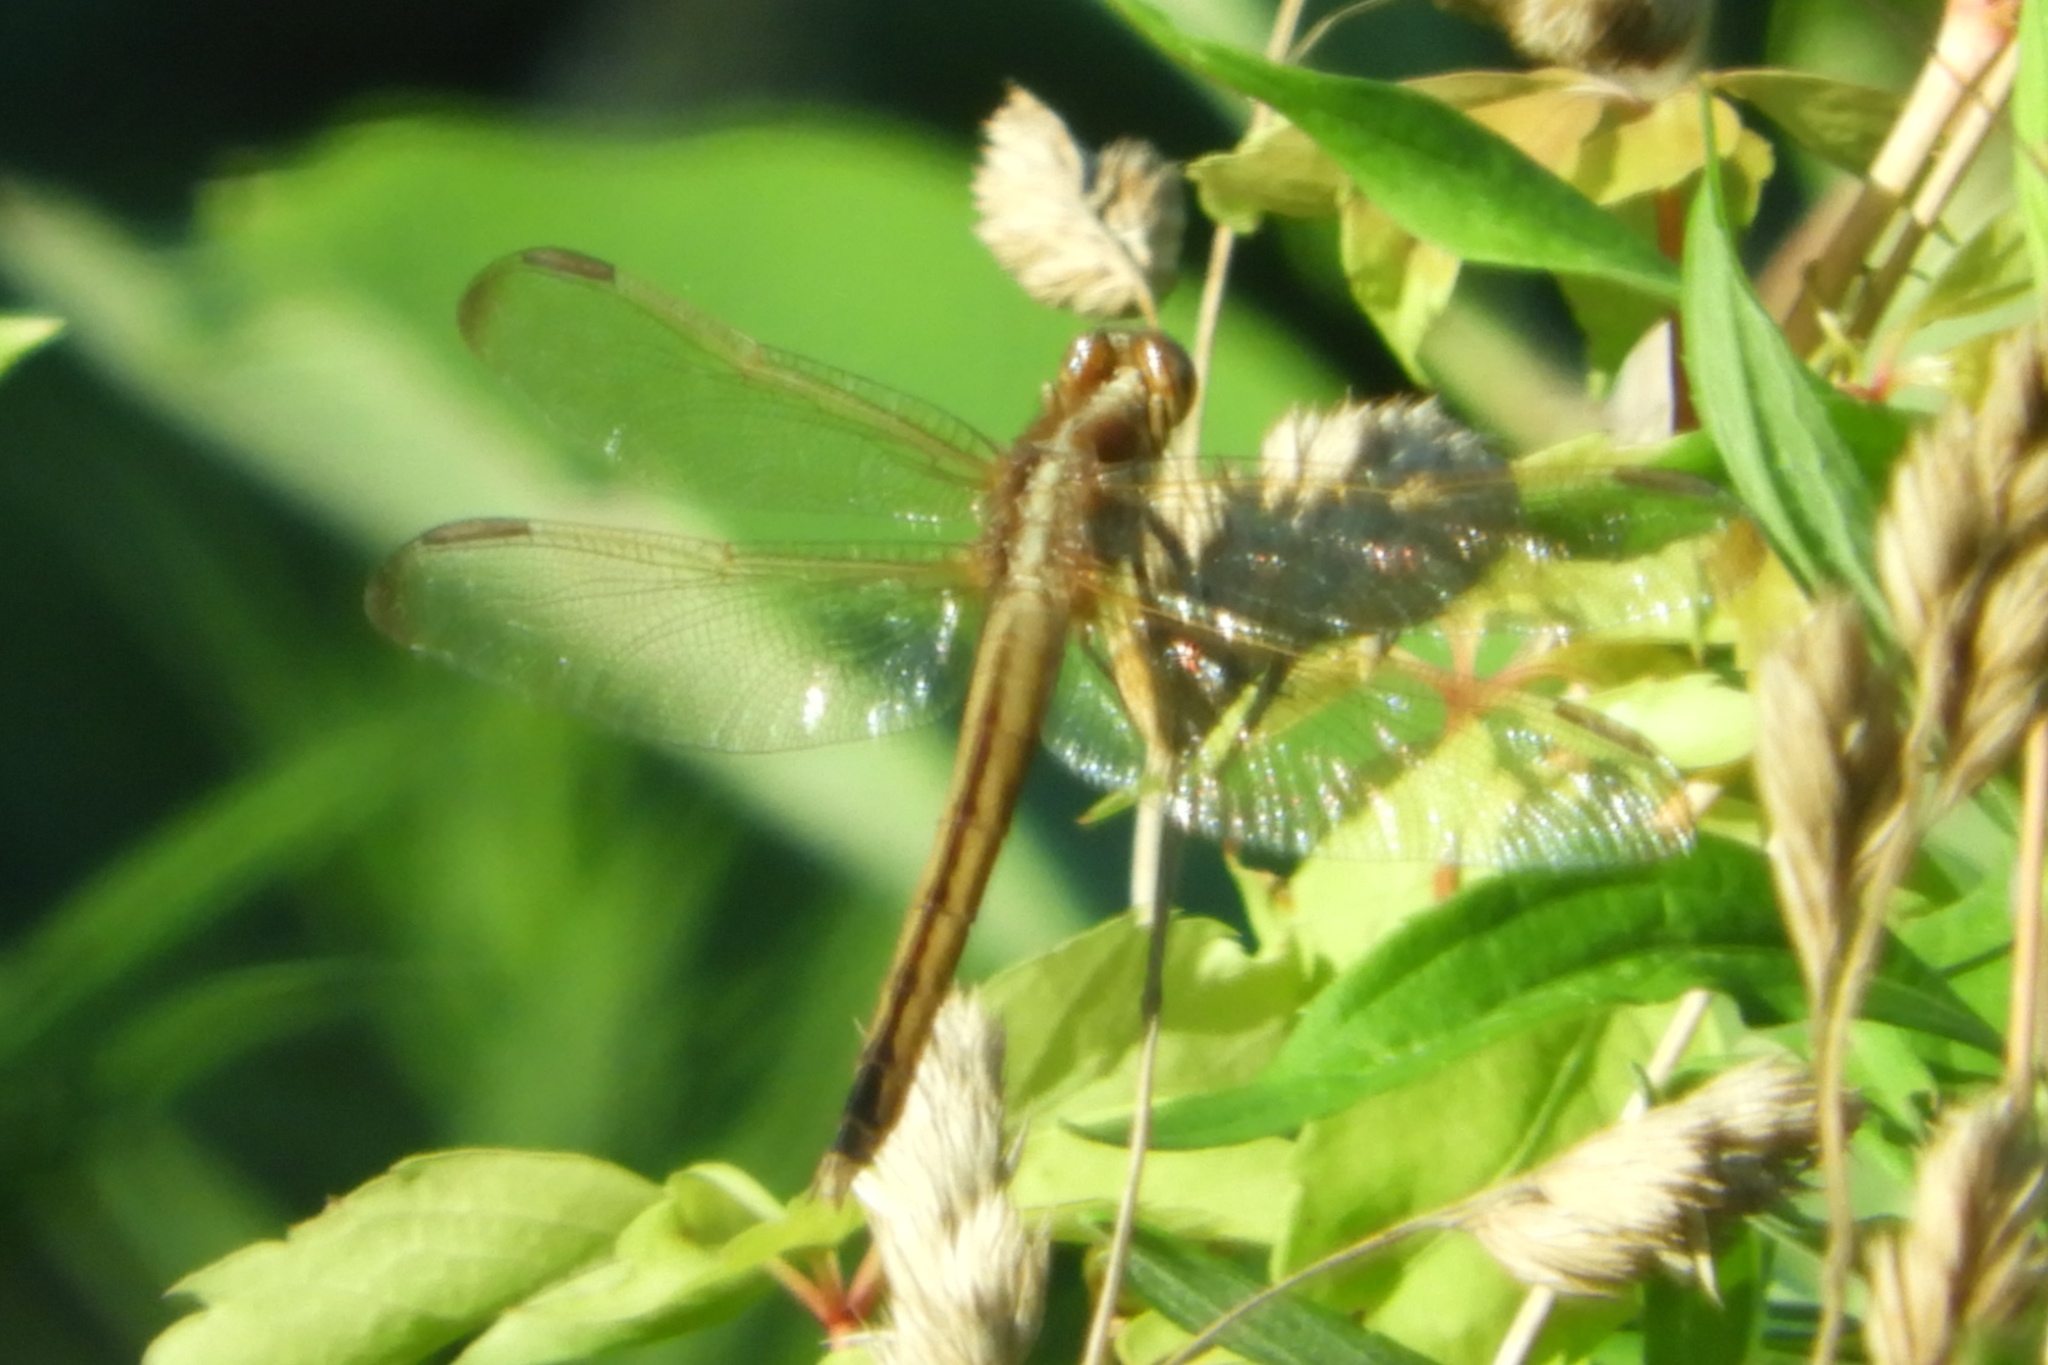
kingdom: Animalia
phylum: Arthropoda
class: Insecta
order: Odonata
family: Libellulidae
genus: Libellula
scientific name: Libellula needhami
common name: Needham's skimmer
